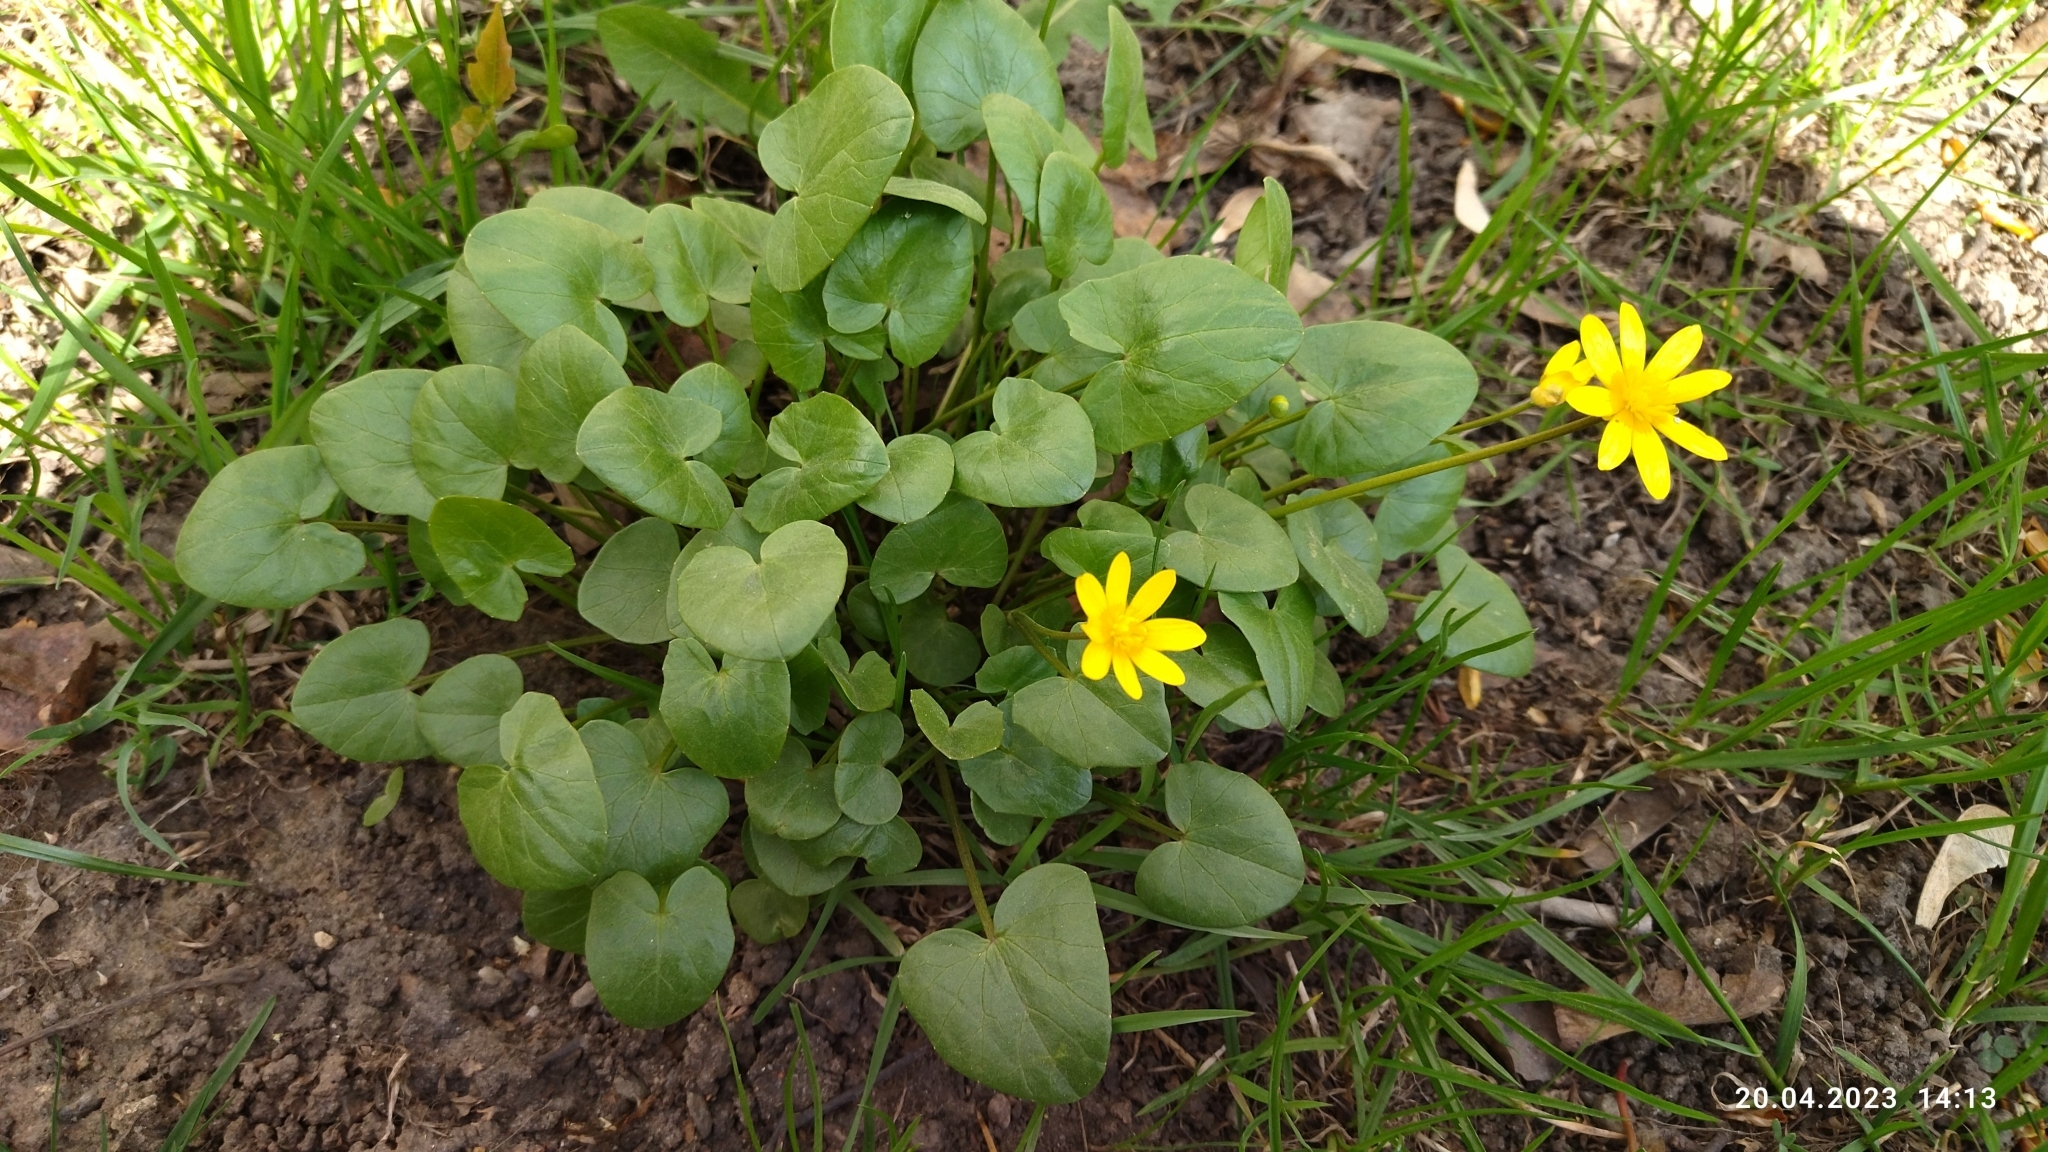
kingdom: Plantae
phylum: Tracheophyta
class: Magnoliopsida
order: Ranunculales
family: Ranunculaceae
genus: Ficaria
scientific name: Ficaria verna
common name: Lesser celandine
